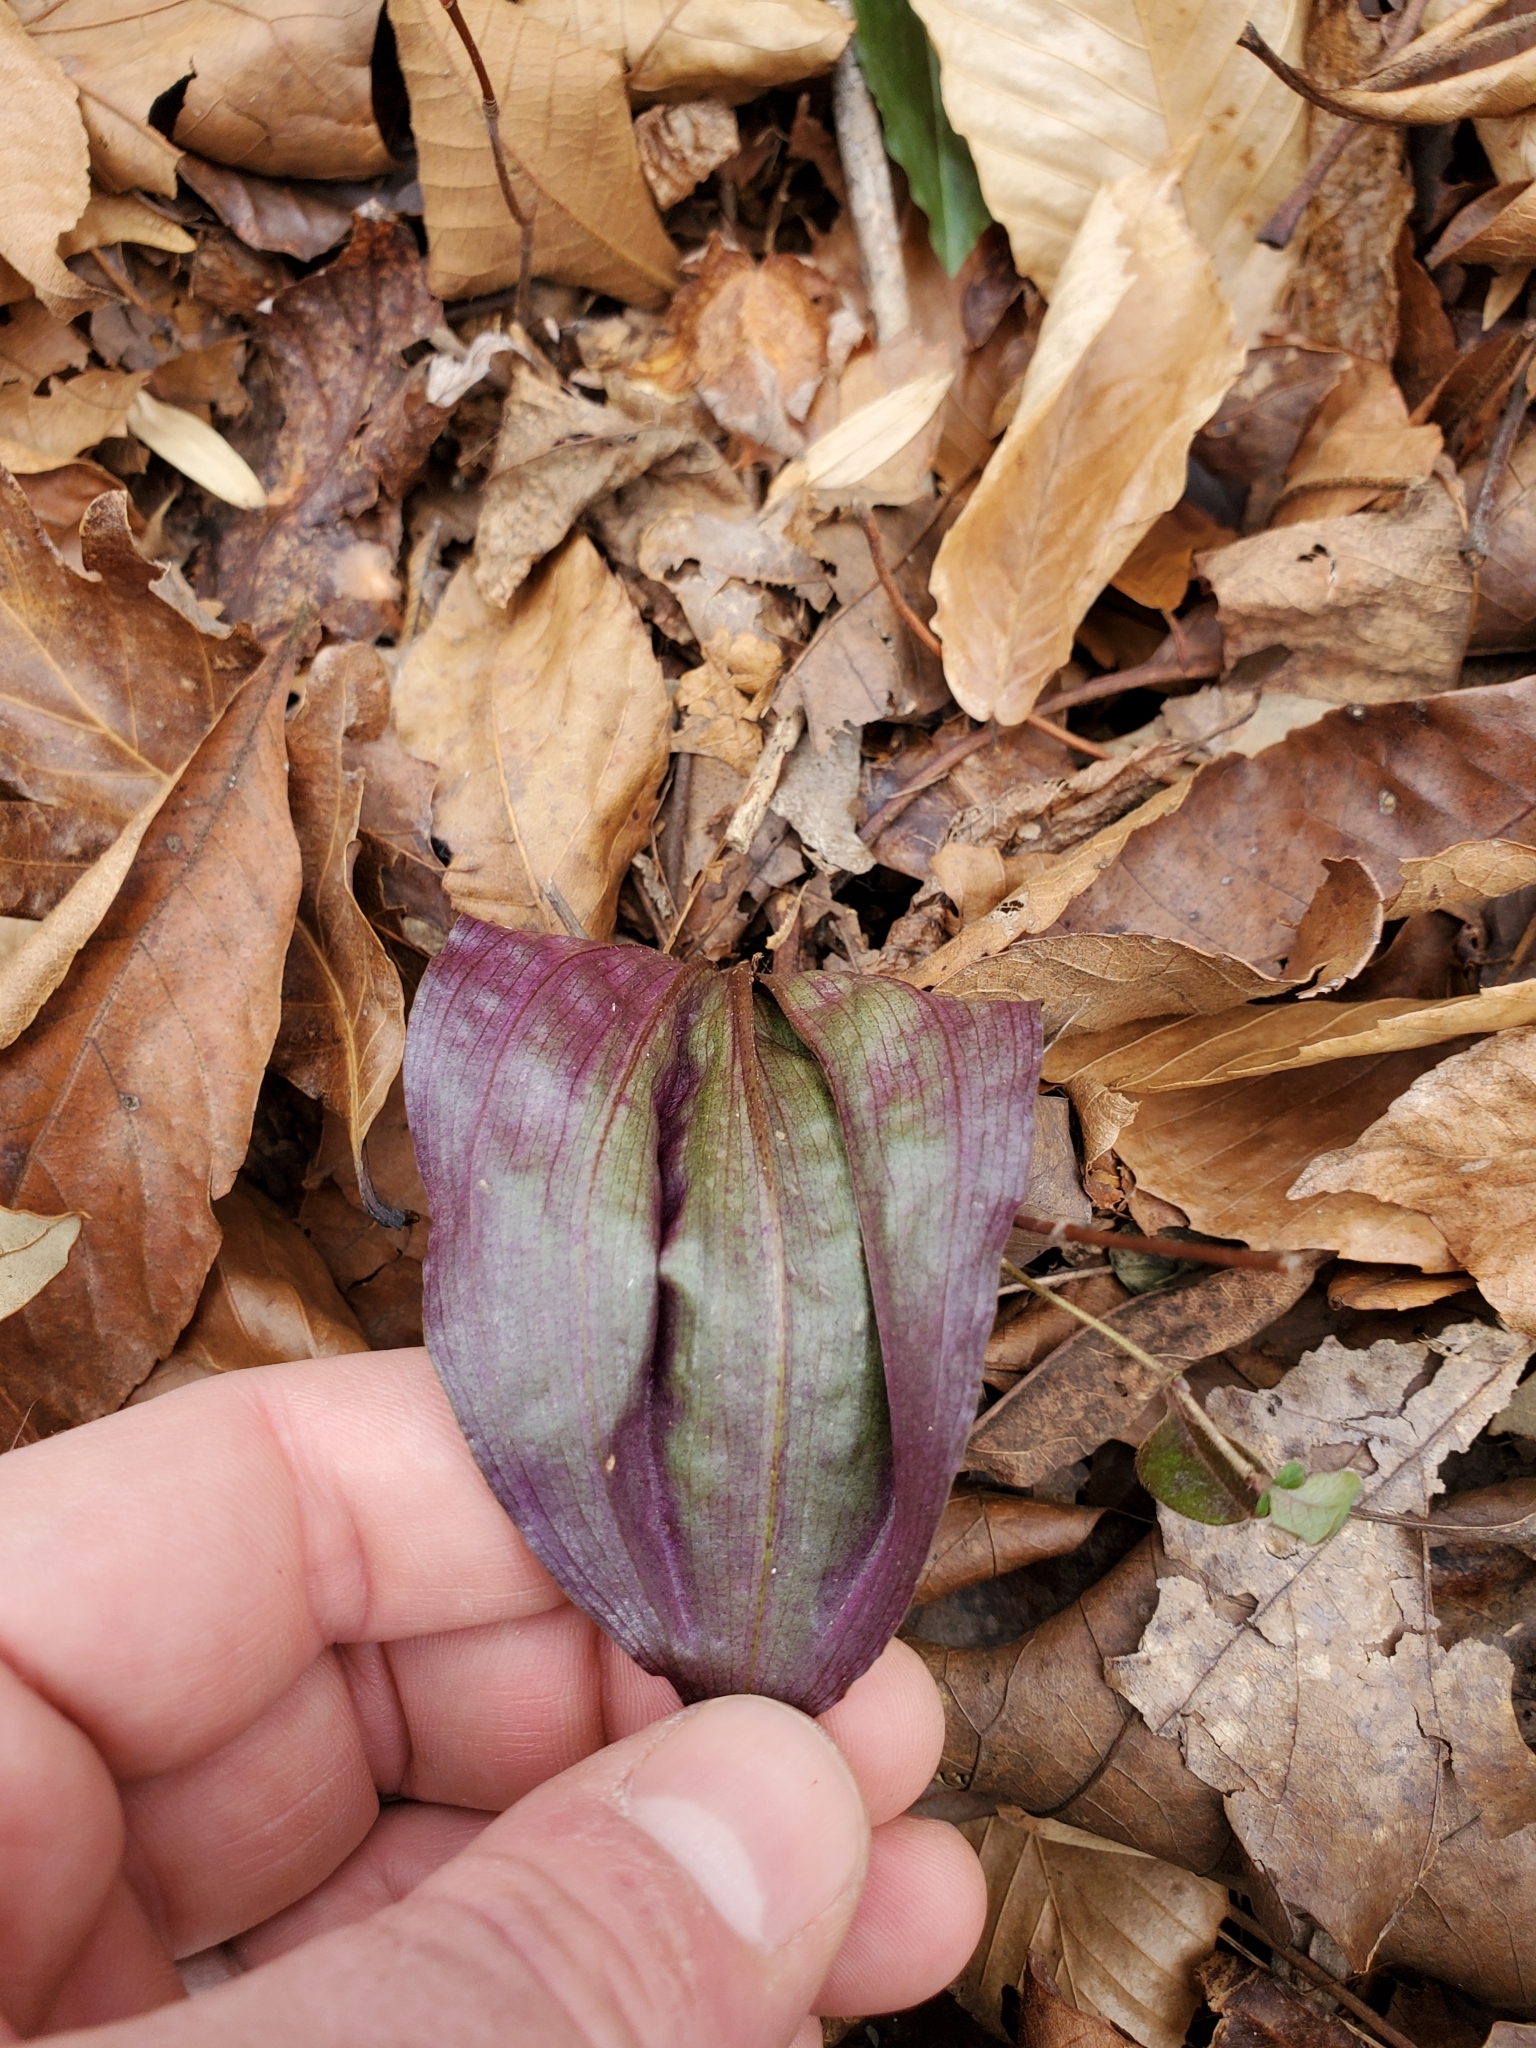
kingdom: Plantae
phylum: Tracheophyta
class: Liliopsida
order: Asparagales
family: Orchidaceae
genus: Tipularia
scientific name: Tipularia discolor
